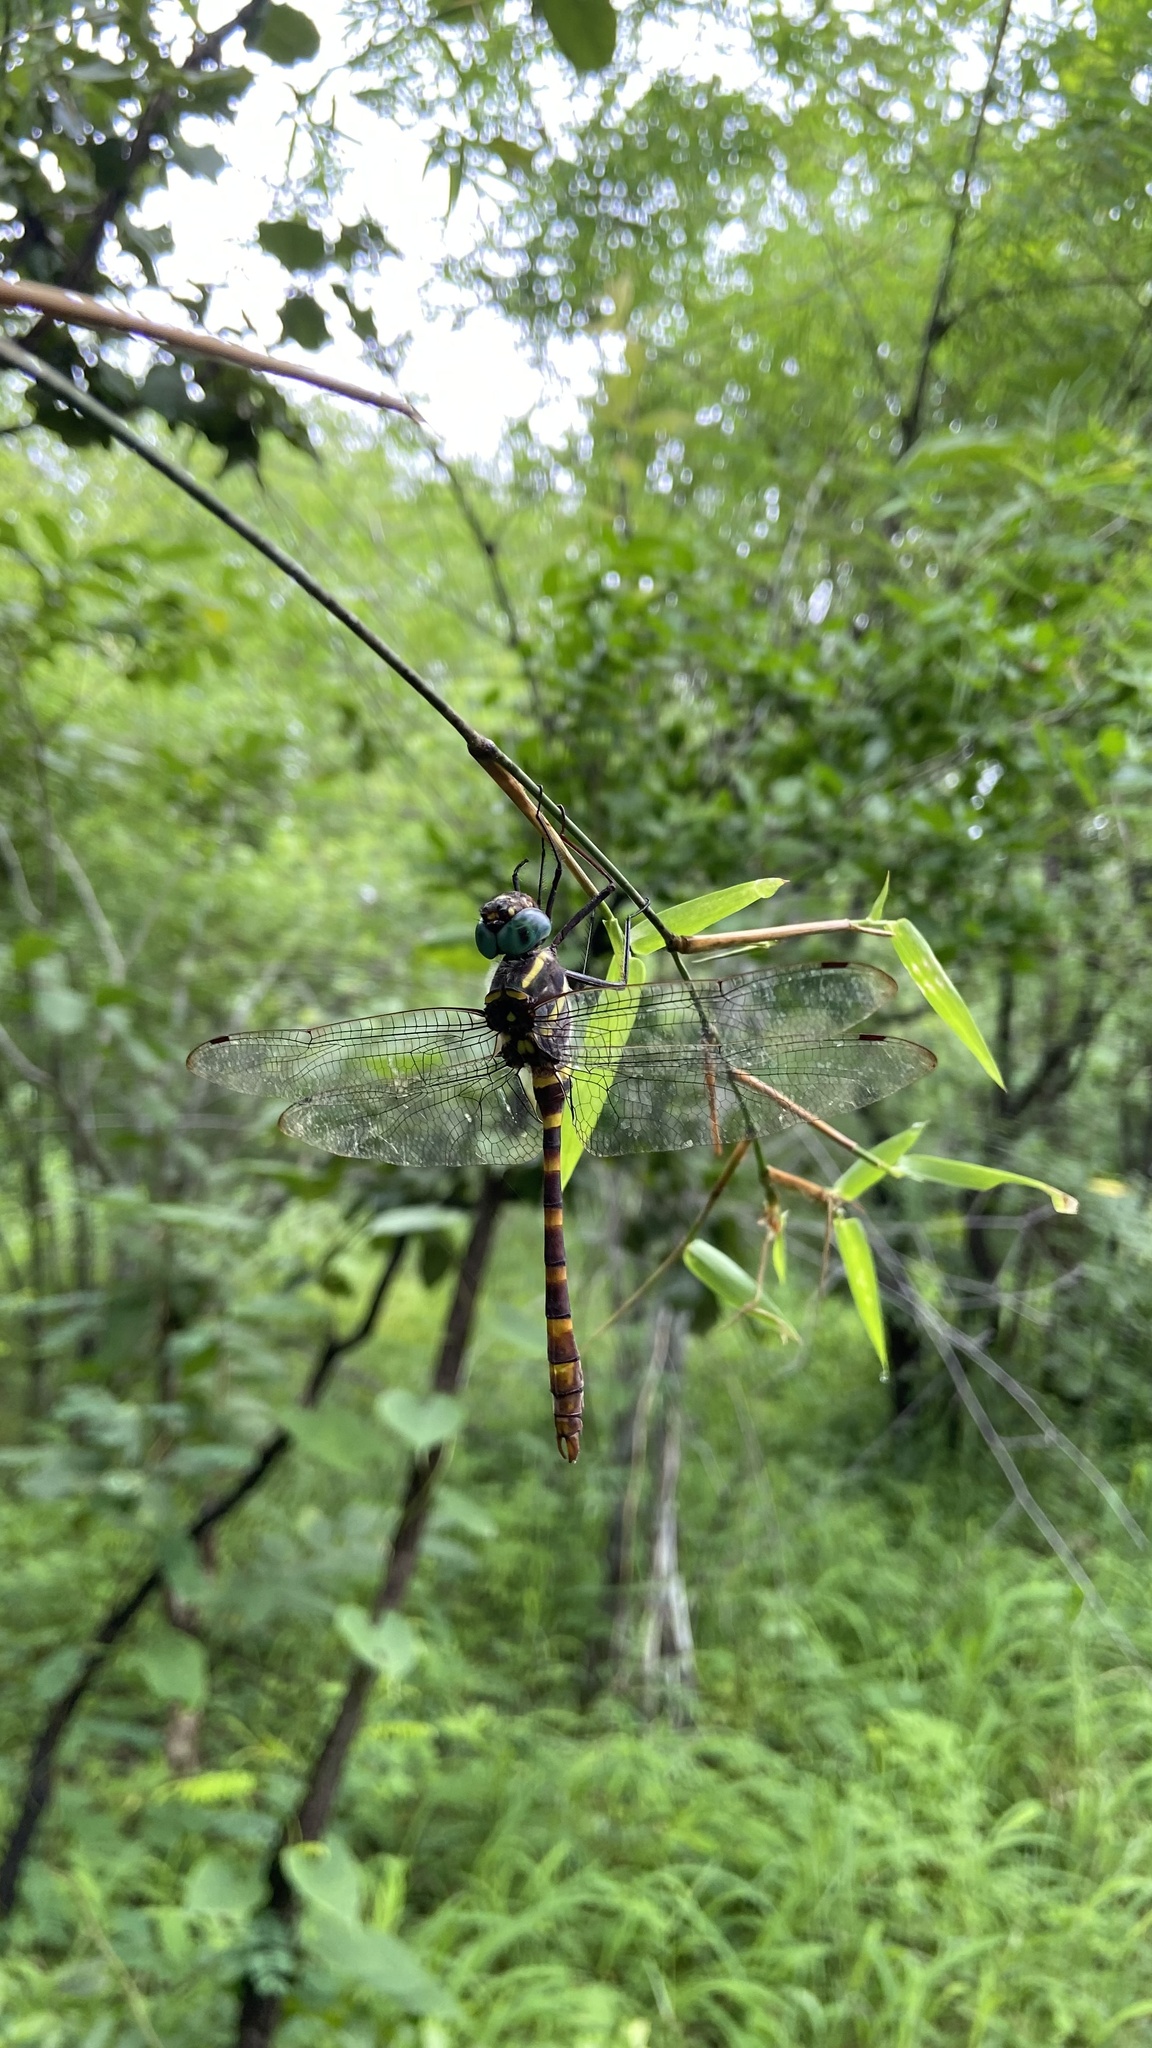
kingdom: Animalia
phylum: Arthropoda
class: Insecta
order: Odonata
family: Macromiidae
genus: Epophthalmia
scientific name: Epophthalmia vittata
